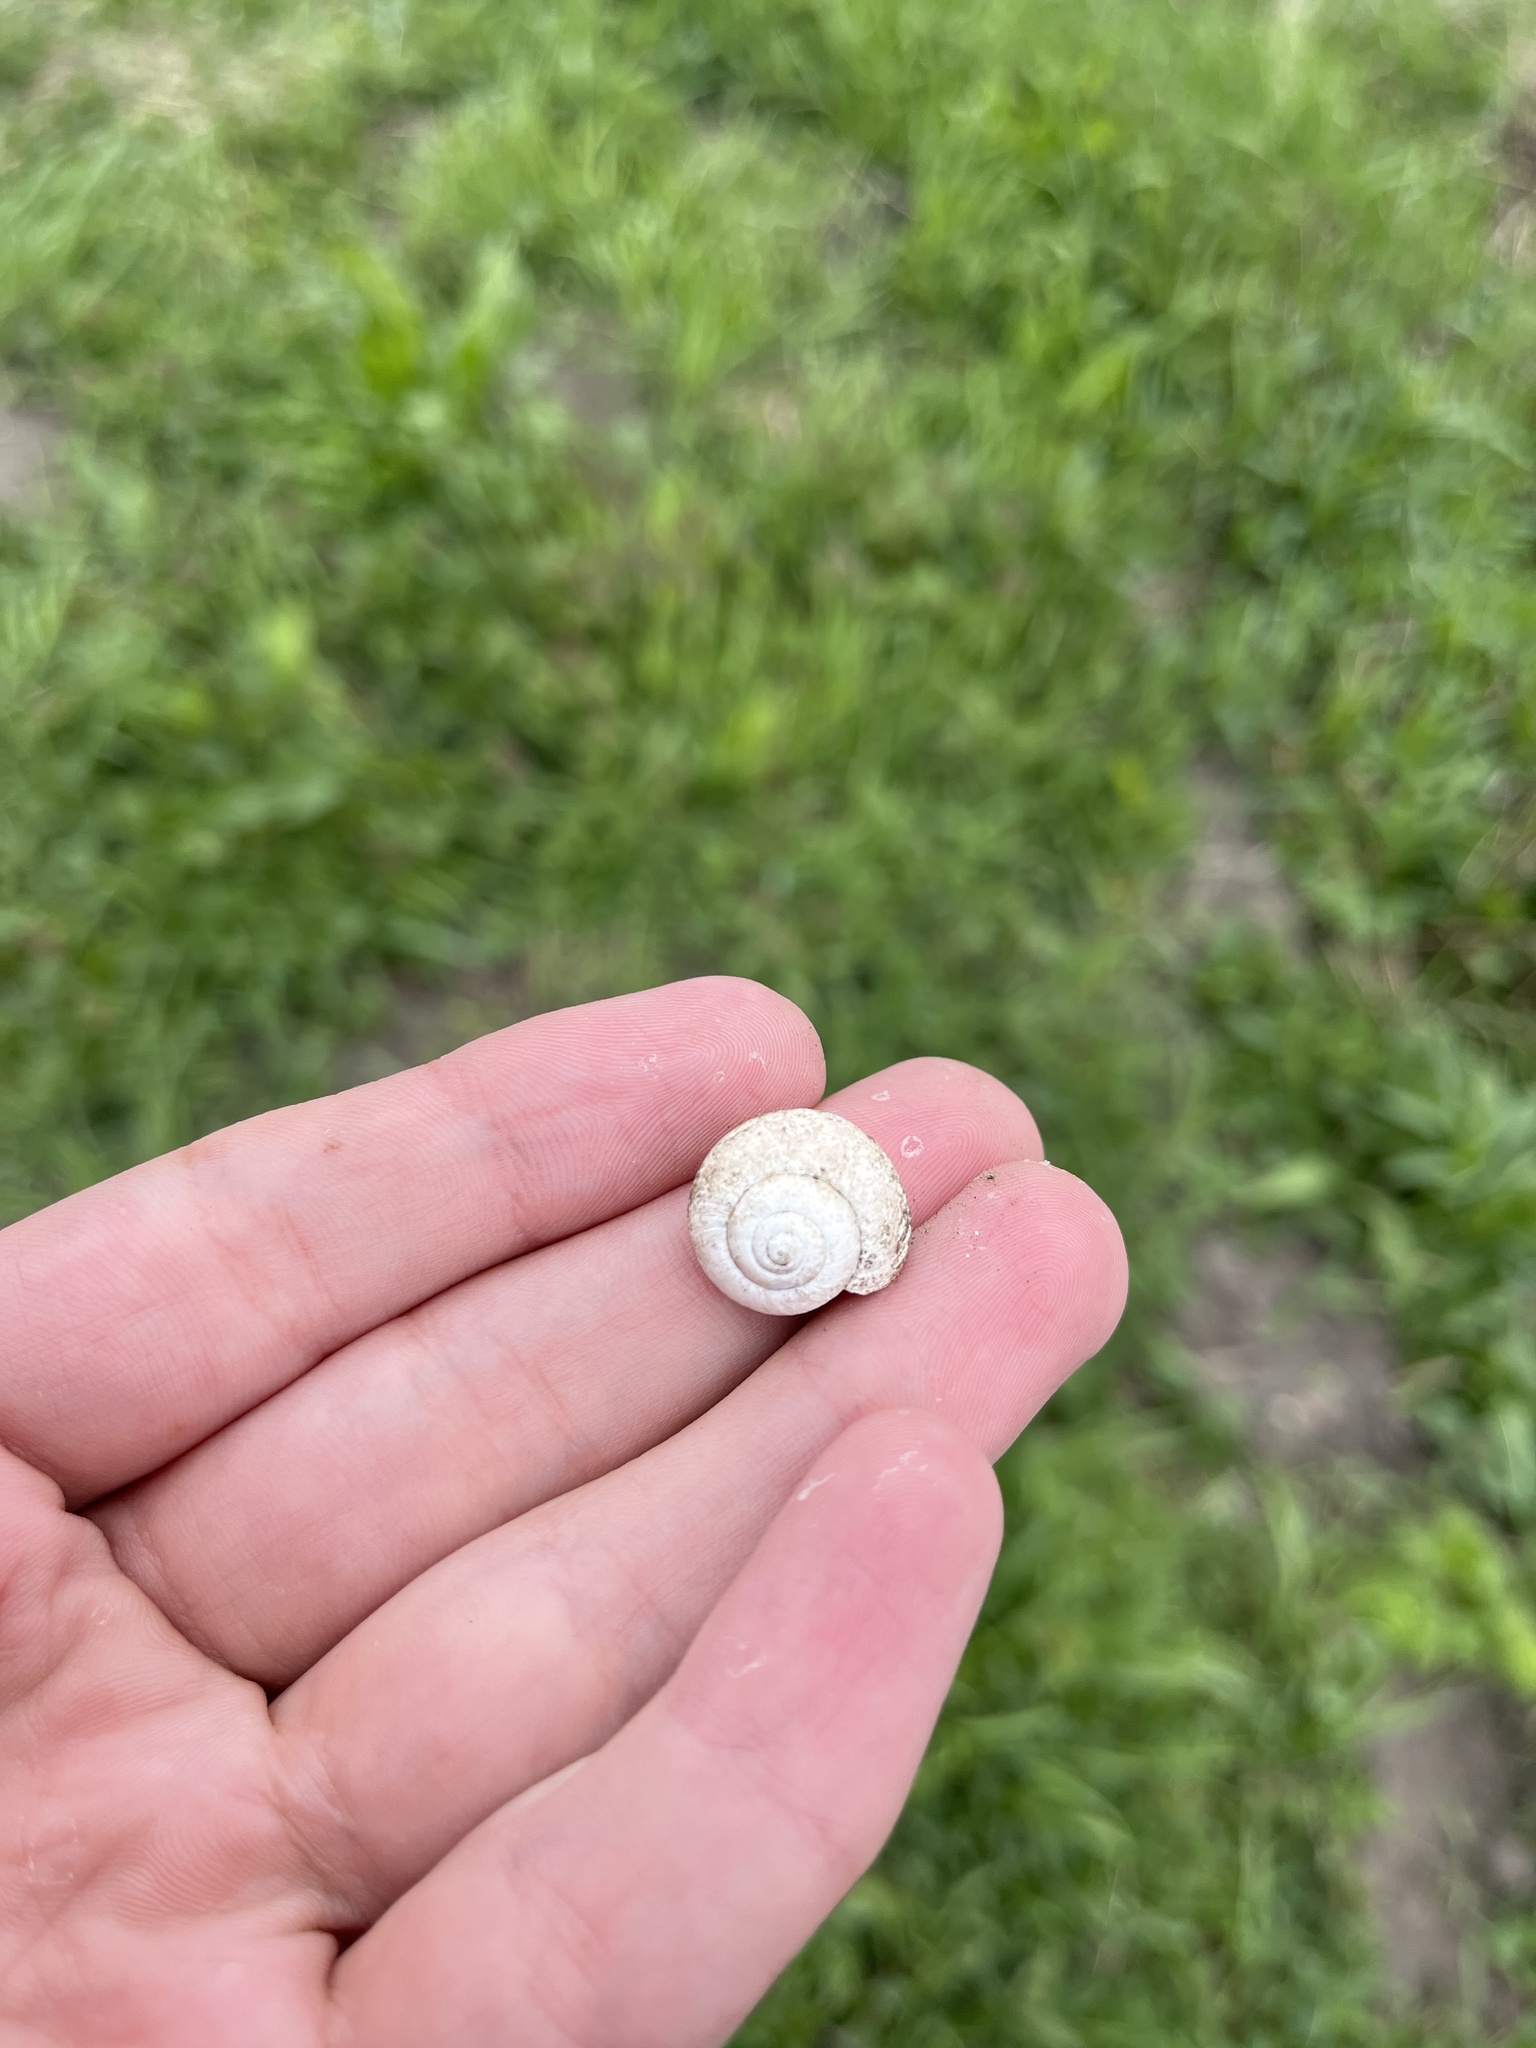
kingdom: Animalia
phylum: Mollusca
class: Gastropoda
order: Stylommatophora
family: Camaenidae
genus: Fruticicola
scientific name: Fruticicola fruticum
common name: Bush snail
